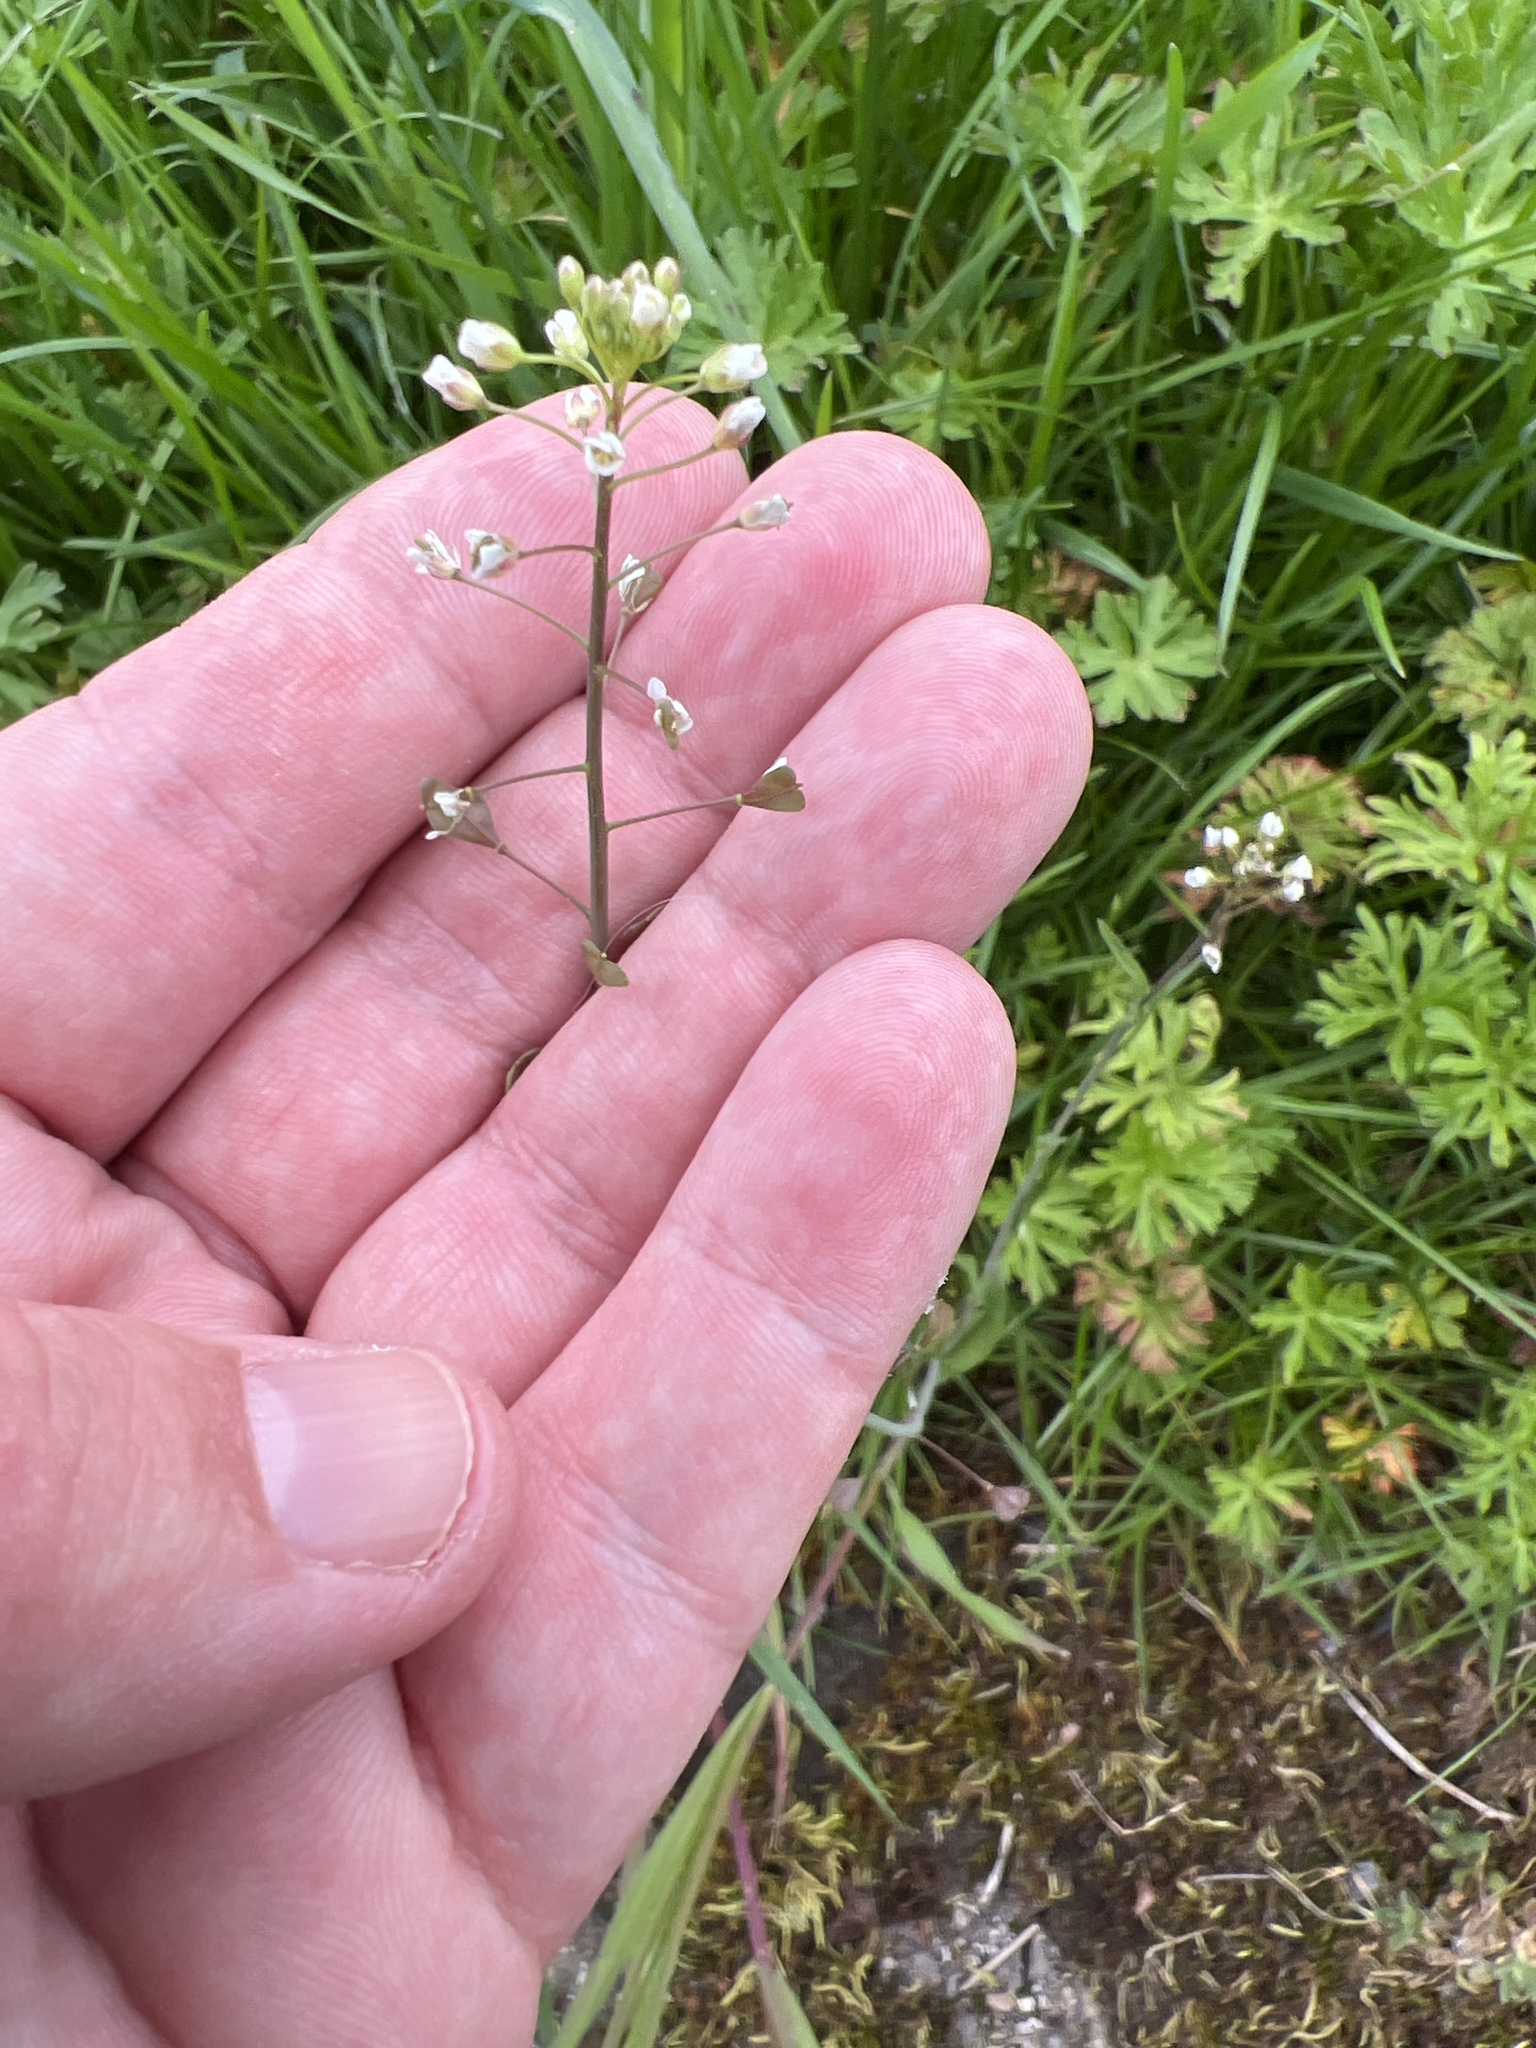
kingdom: Plantae
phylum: Tracheophyta
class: Magnoliopsida
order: Brassicales
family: Brassicaceae
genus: Capsella
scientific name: Capsella bursa-pastoris
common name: Shepherd's purse
